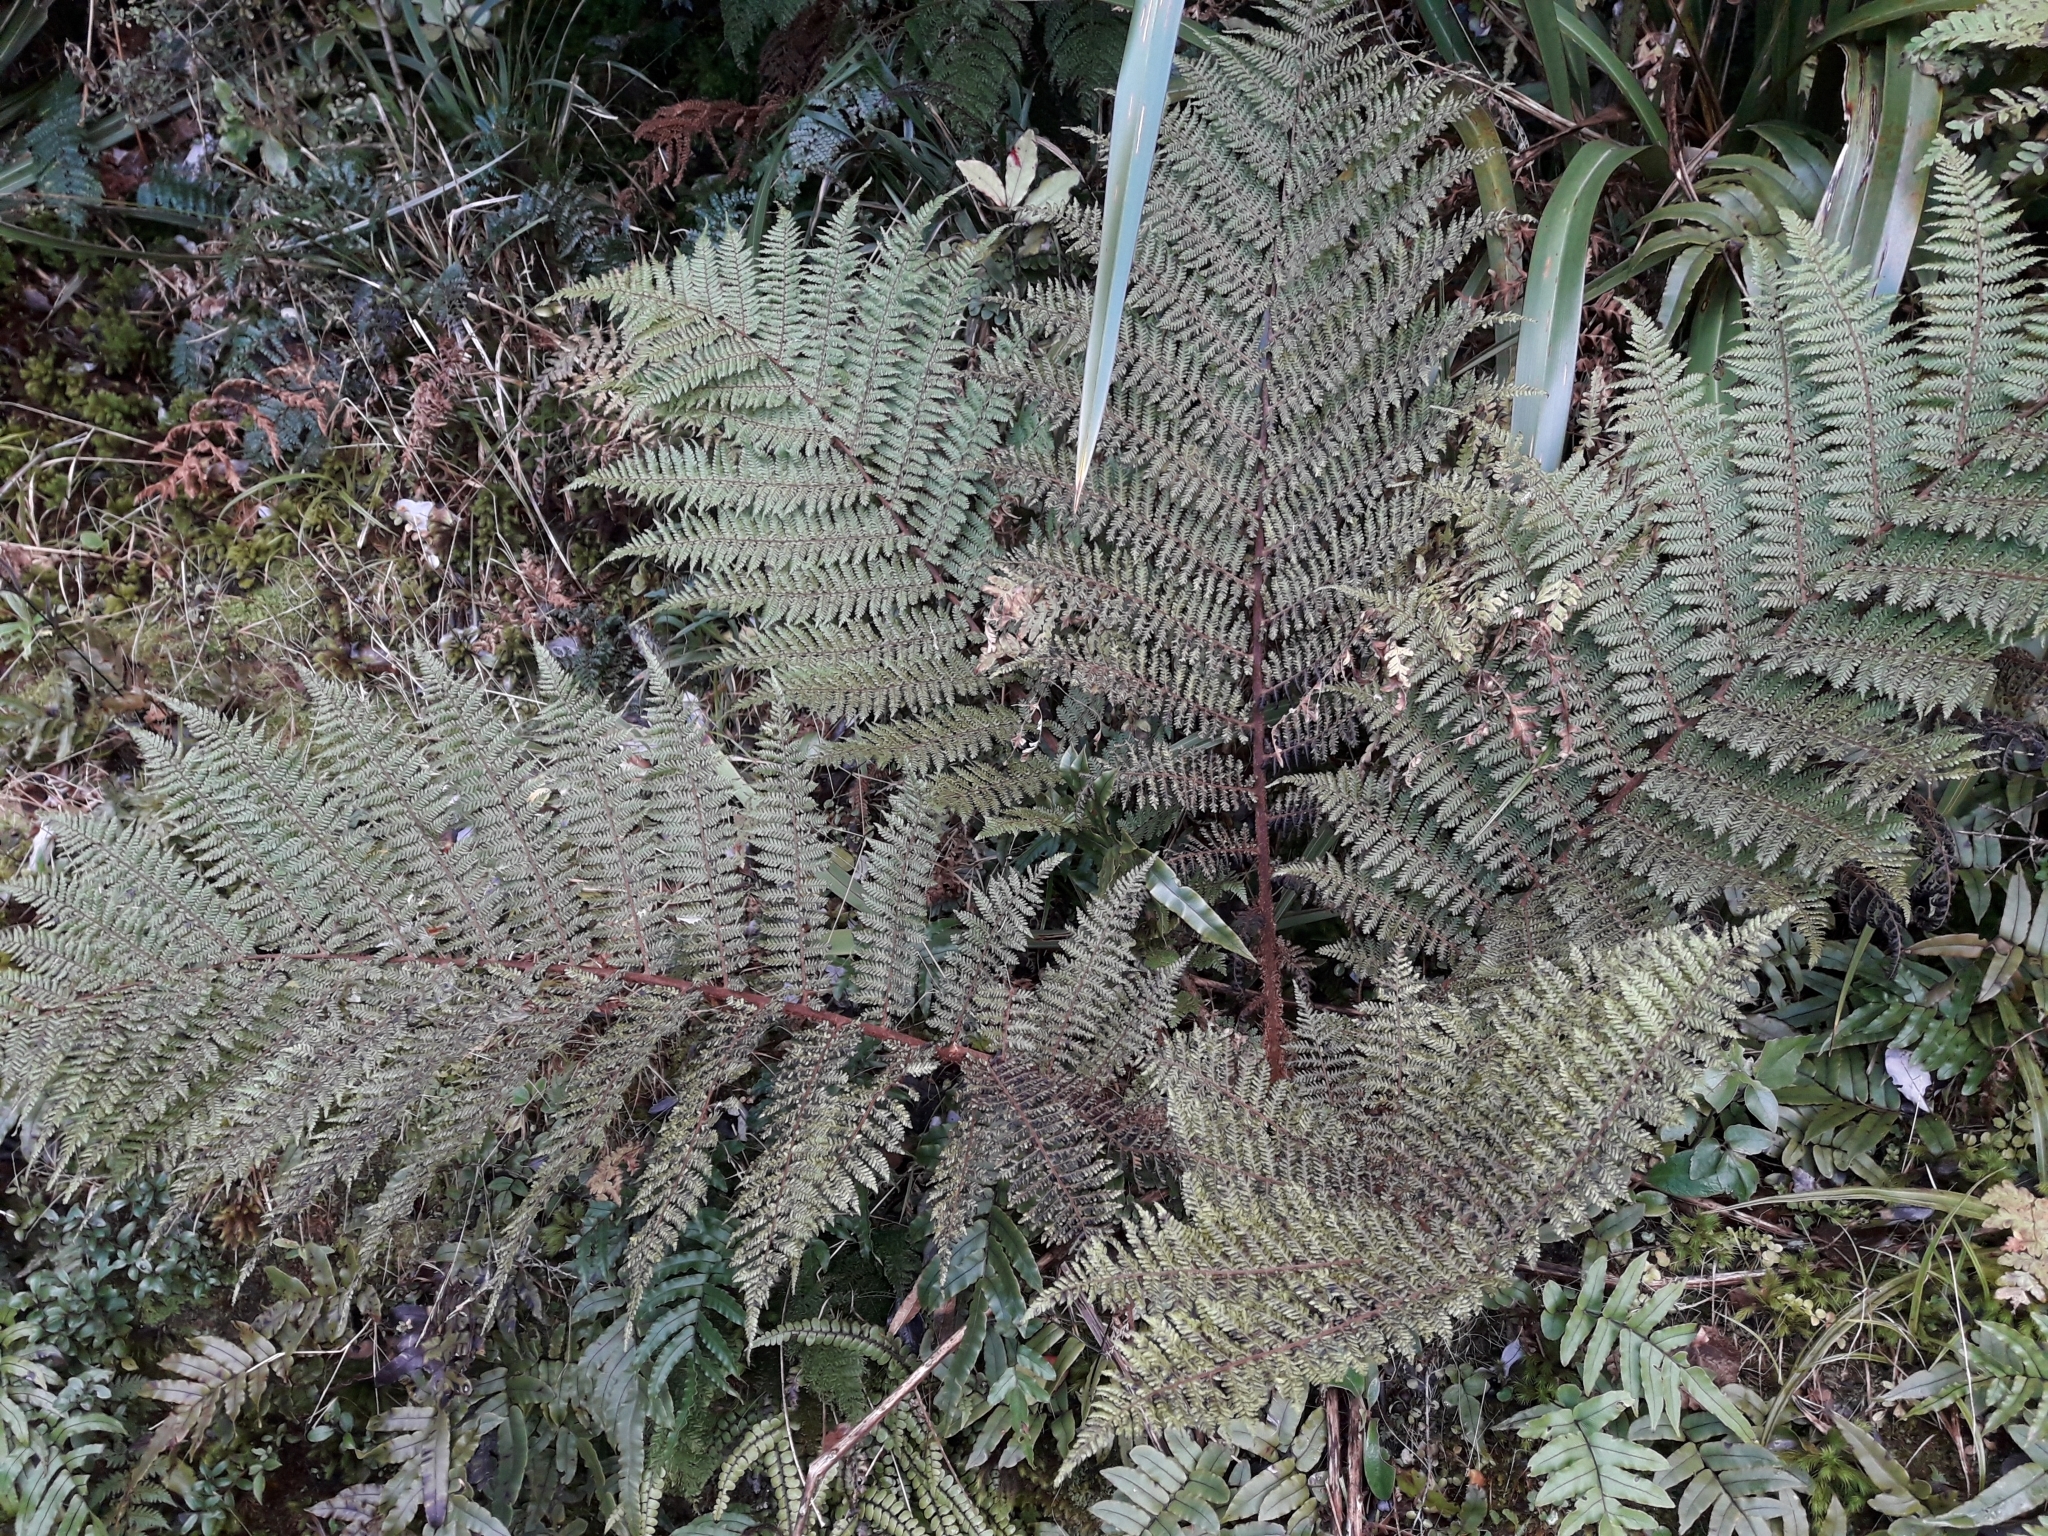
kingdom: Plantae
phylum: Tracheophyta
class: Polypodiopsida
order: Cyatheales
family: Cyatheaceae
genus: Alsophila
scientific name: Alsophila colensoi
